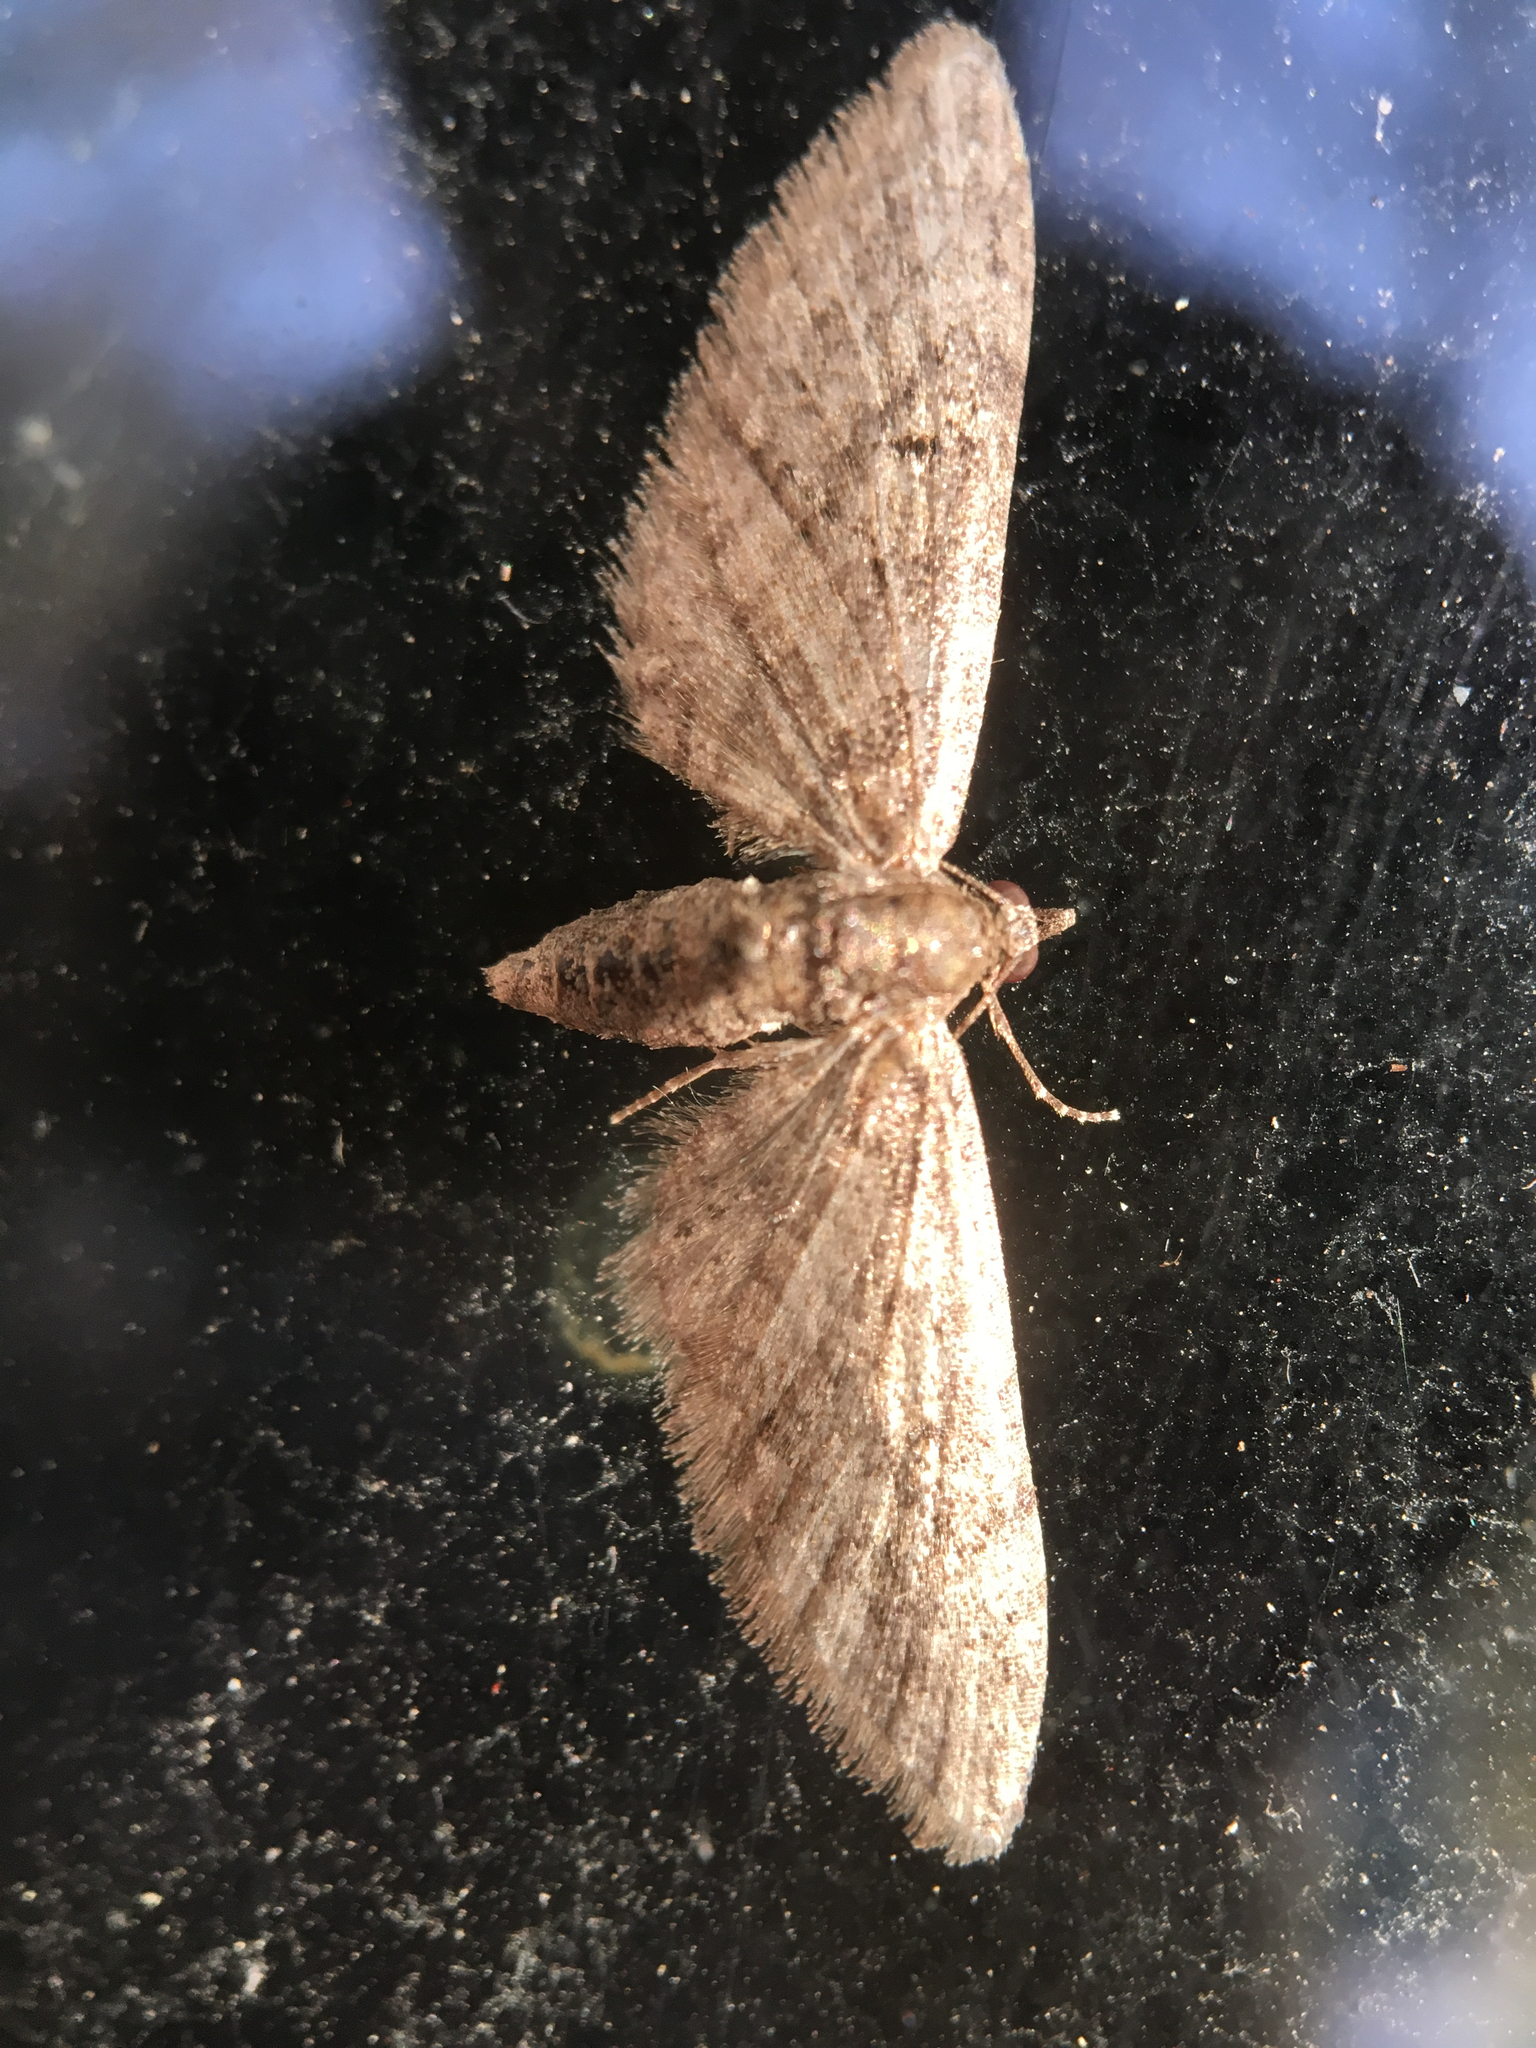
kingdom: Animalia
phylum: Arthropoda
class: Insecta
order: Lepidoptera
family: Geometridae
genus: Eupithecia
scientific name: Eupithecia
